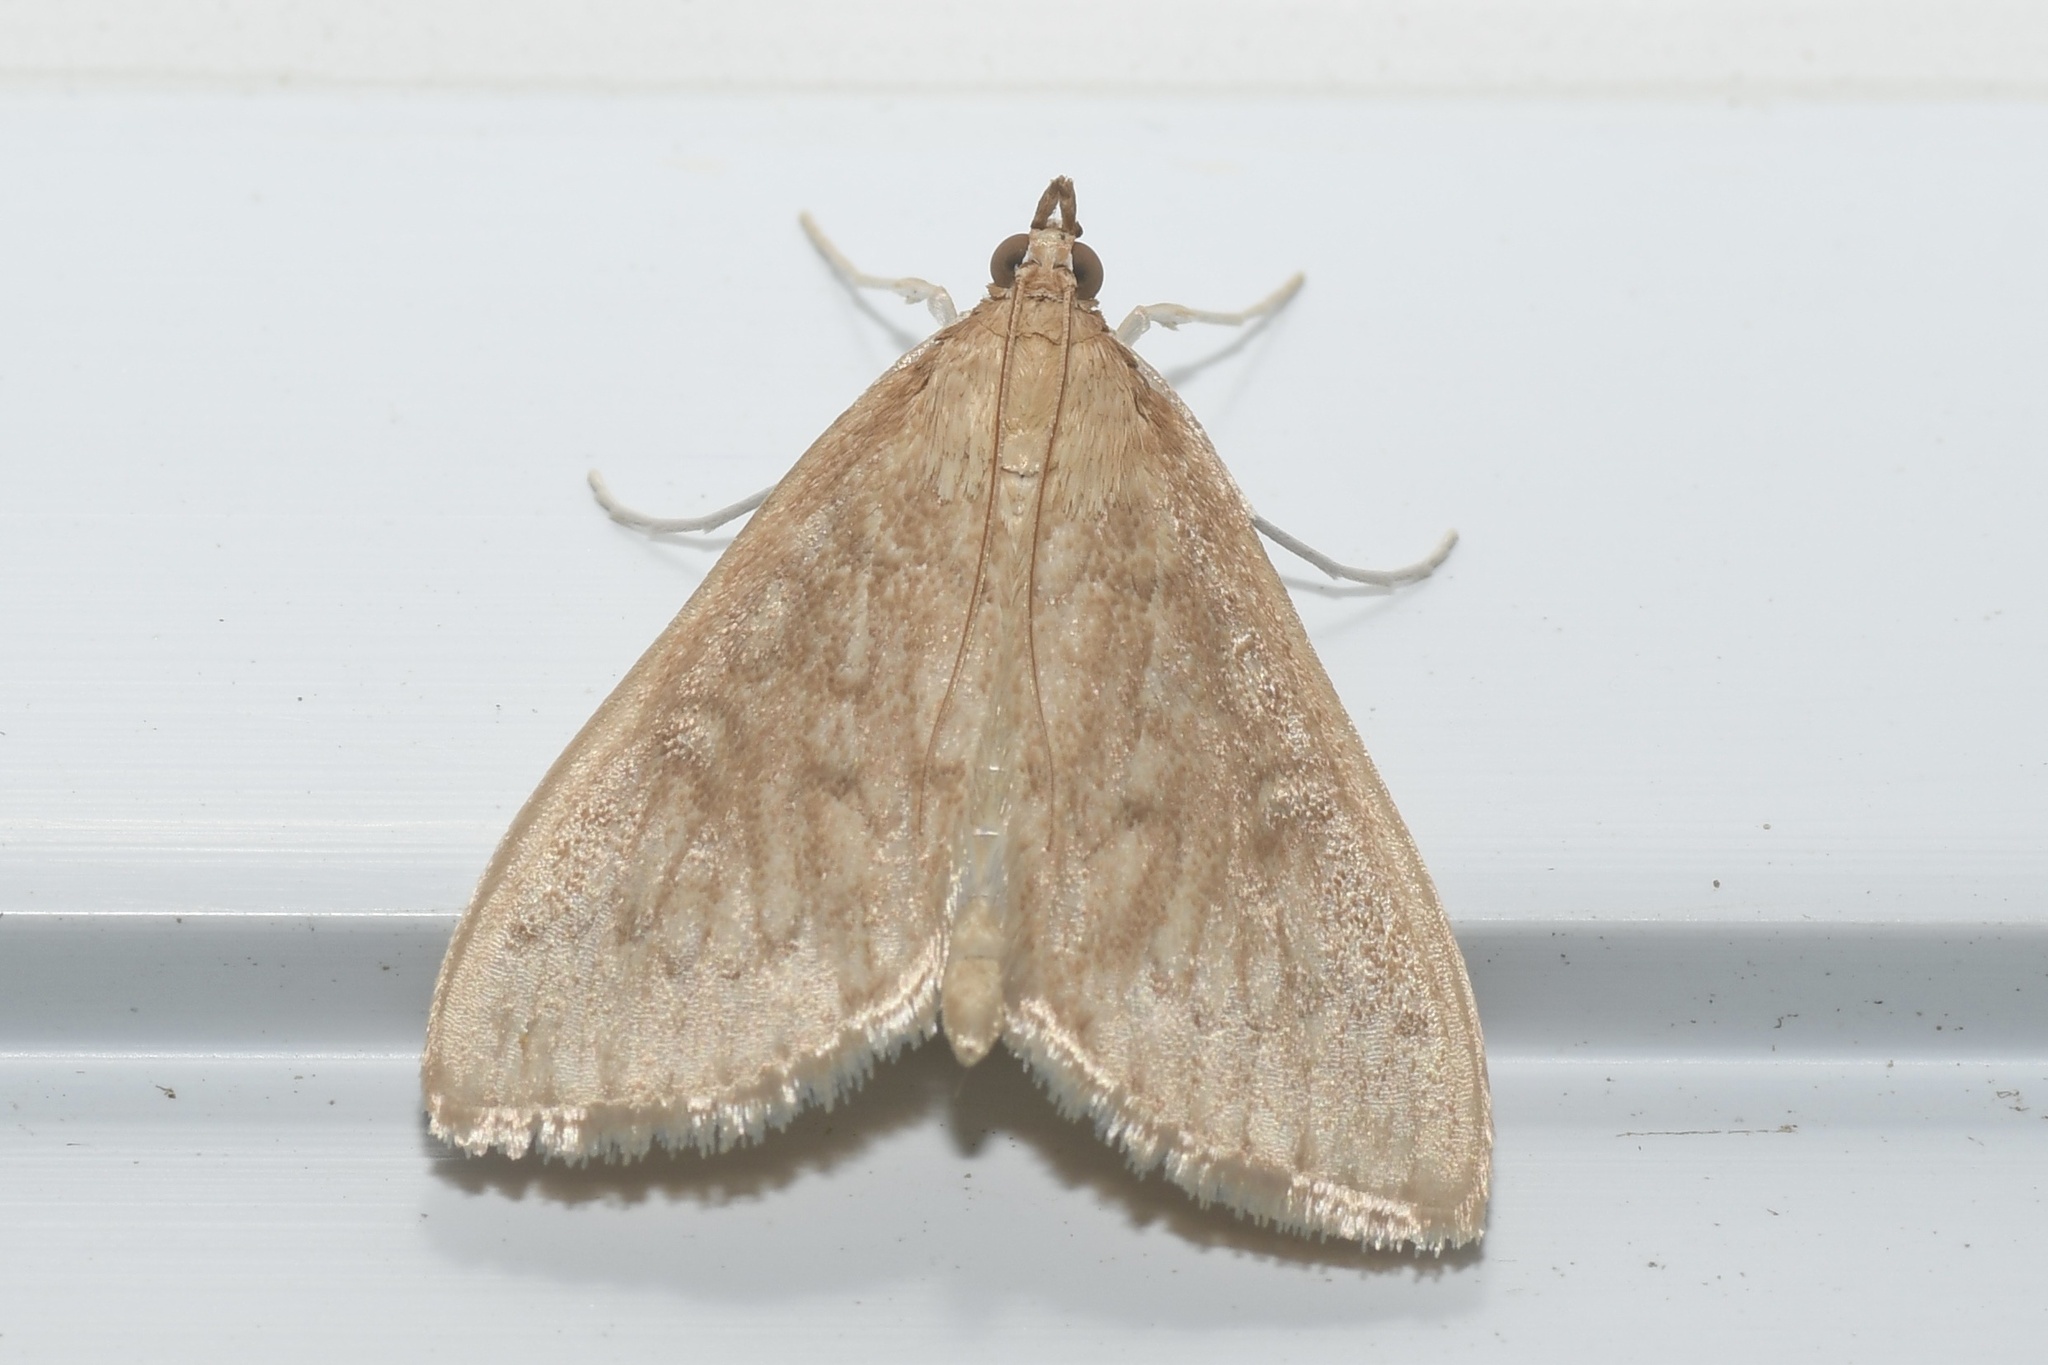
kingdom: Animalia
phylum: Arthropoda
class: Insecta
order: Lepidoptera
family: Crambidae
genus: Anania
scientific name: Anania Framinghamia helvalis
